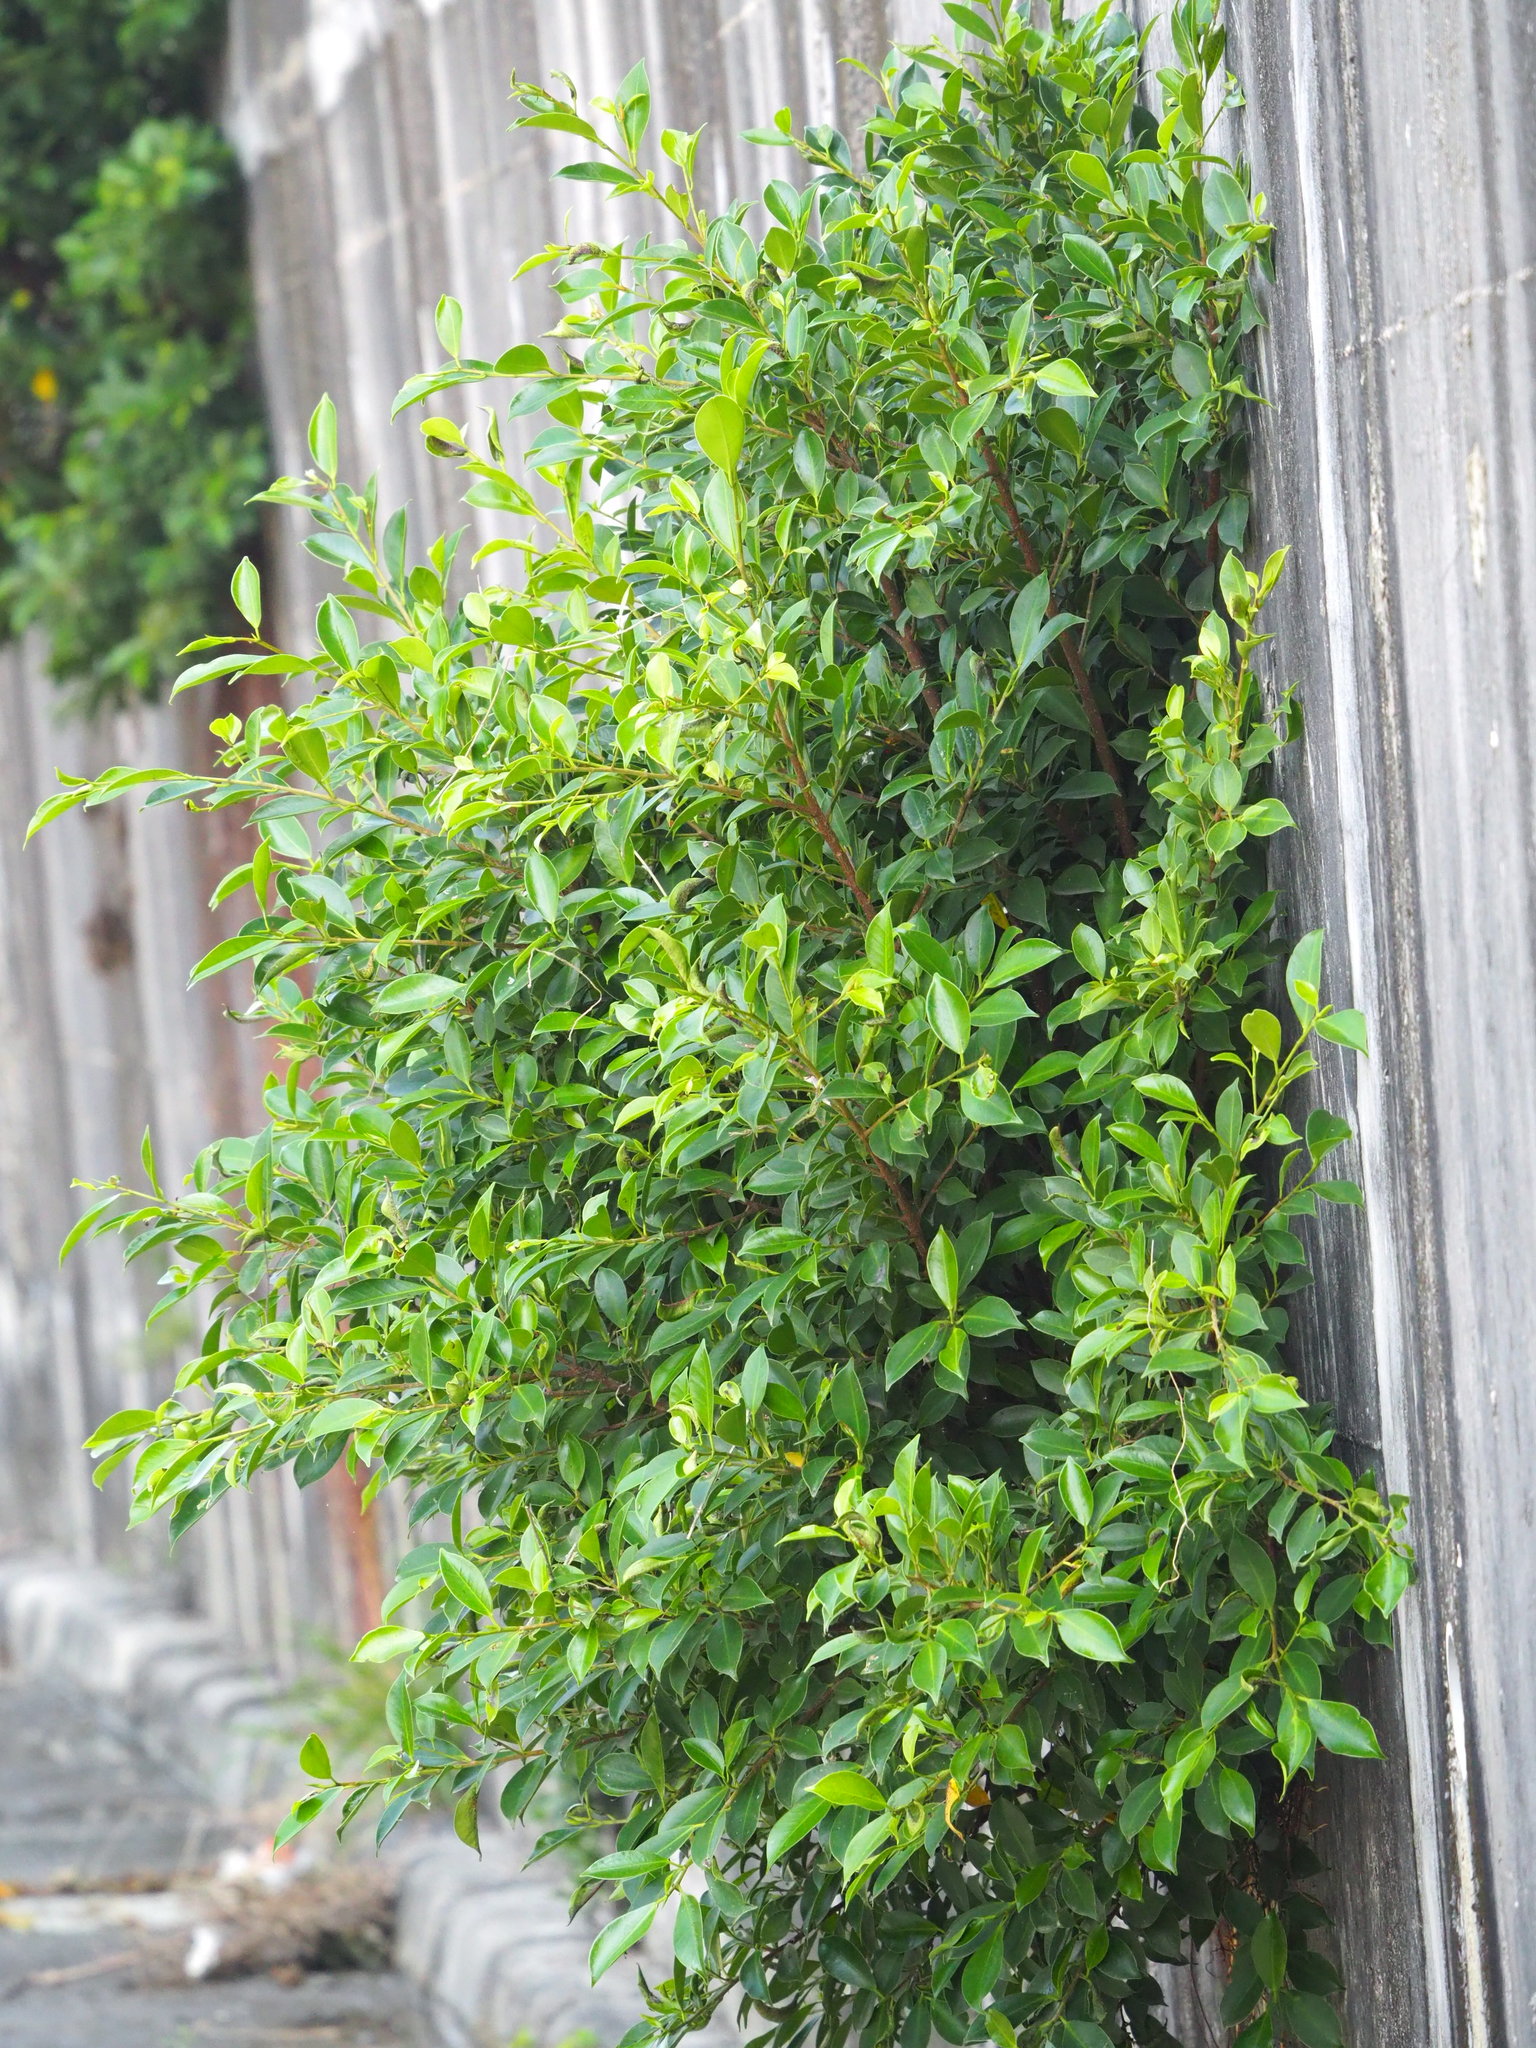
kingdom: Plantae
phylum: Tracheophyta
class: Magnoliopsida
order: Rosales
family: Moraceae
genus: Ficus
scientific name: Ficus microcarpa
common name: Chinese banyan
